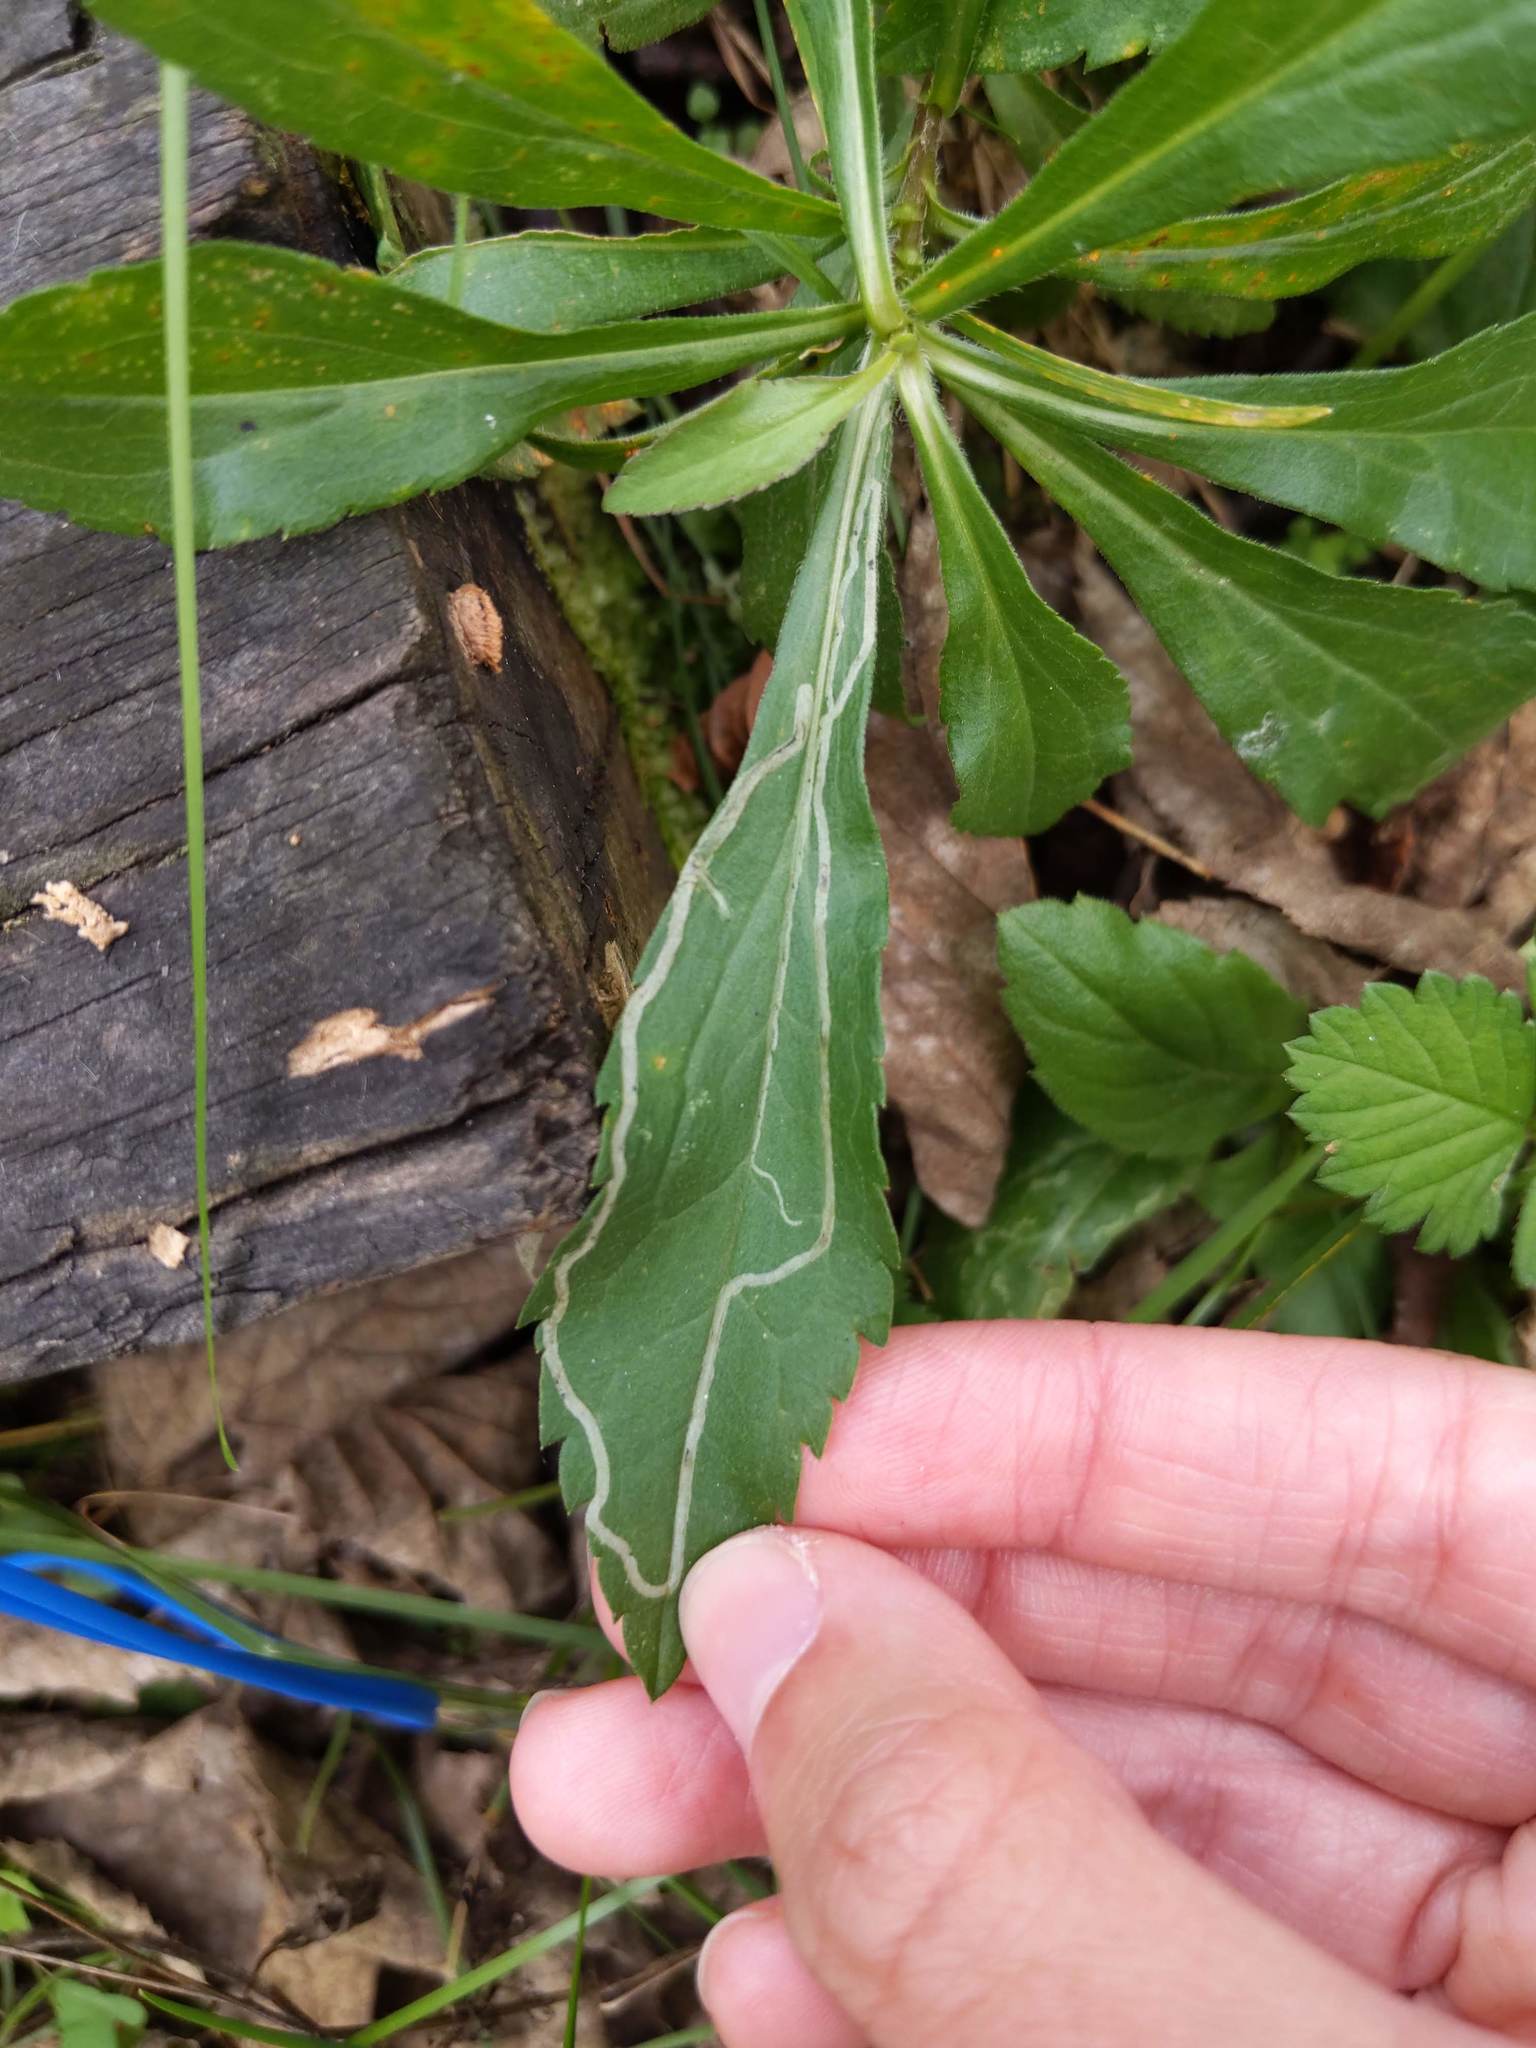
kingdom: Animalia
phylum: Arthropoda
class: Insecta
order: Diptera
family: Agromyzidae
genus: Ophiomyia
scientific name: Ophiomyia maura
